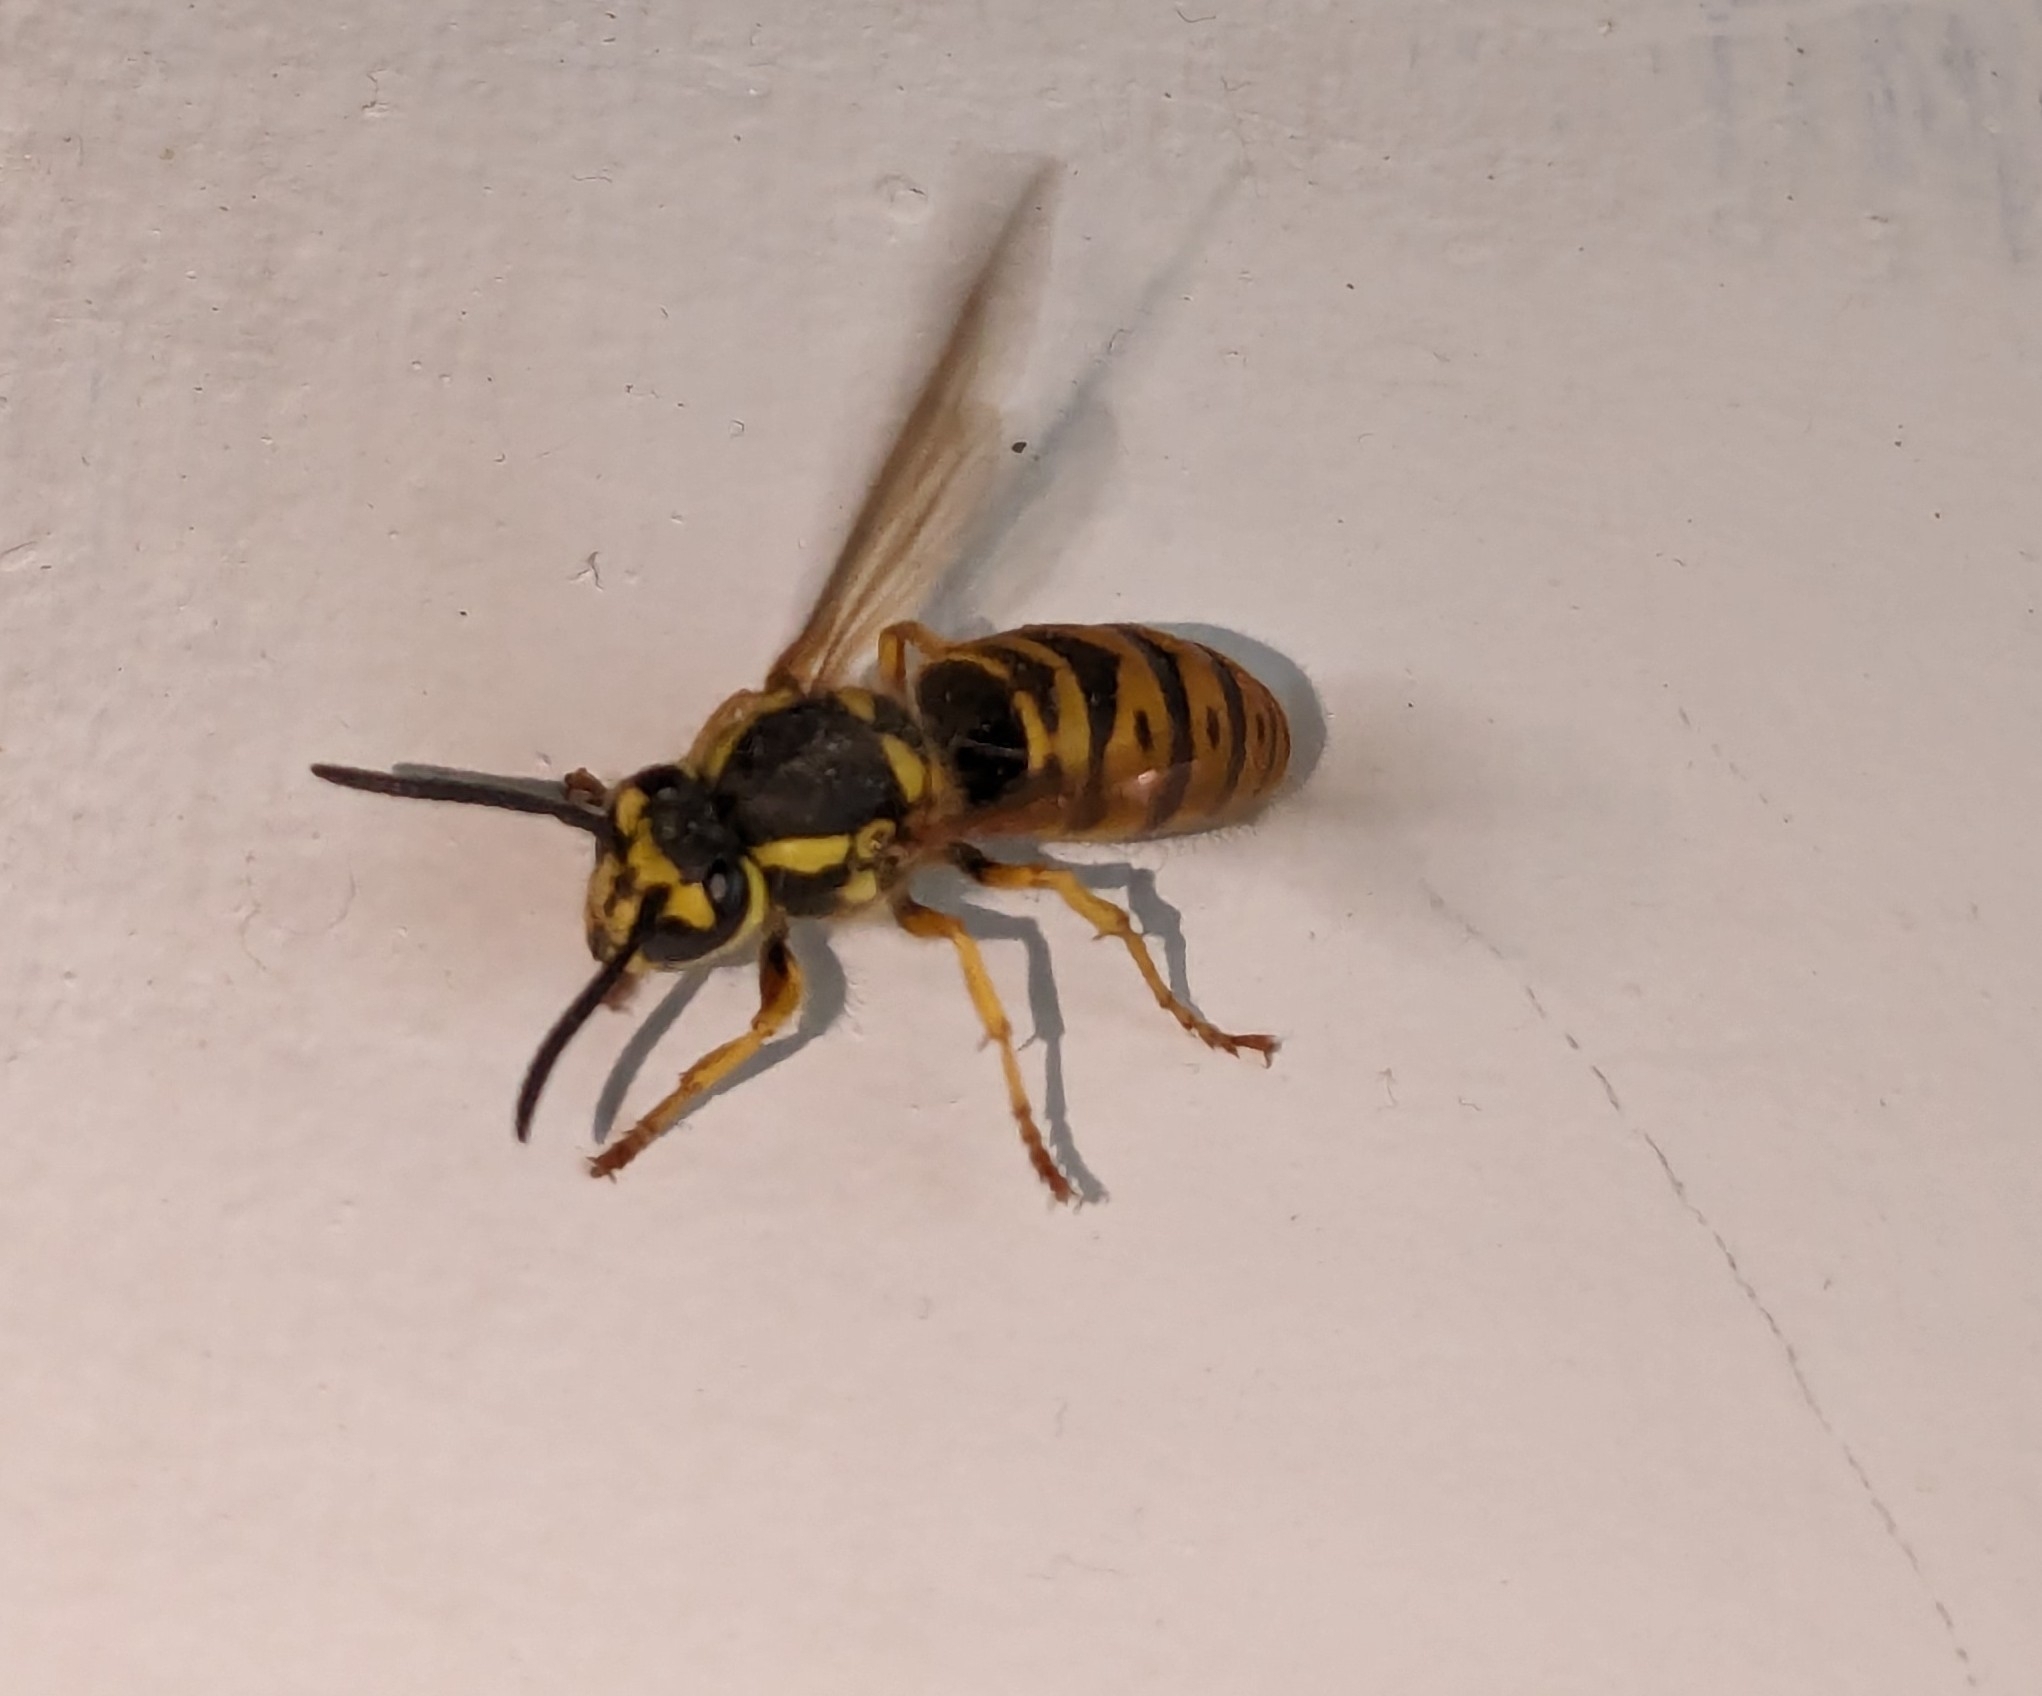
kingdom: Animalia
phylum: Arthropoda
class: Insecta
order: Hymenoptera
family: Vespidae
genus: Vespula
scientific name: Vespula maculifrons
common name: Eastern yellowjacket
